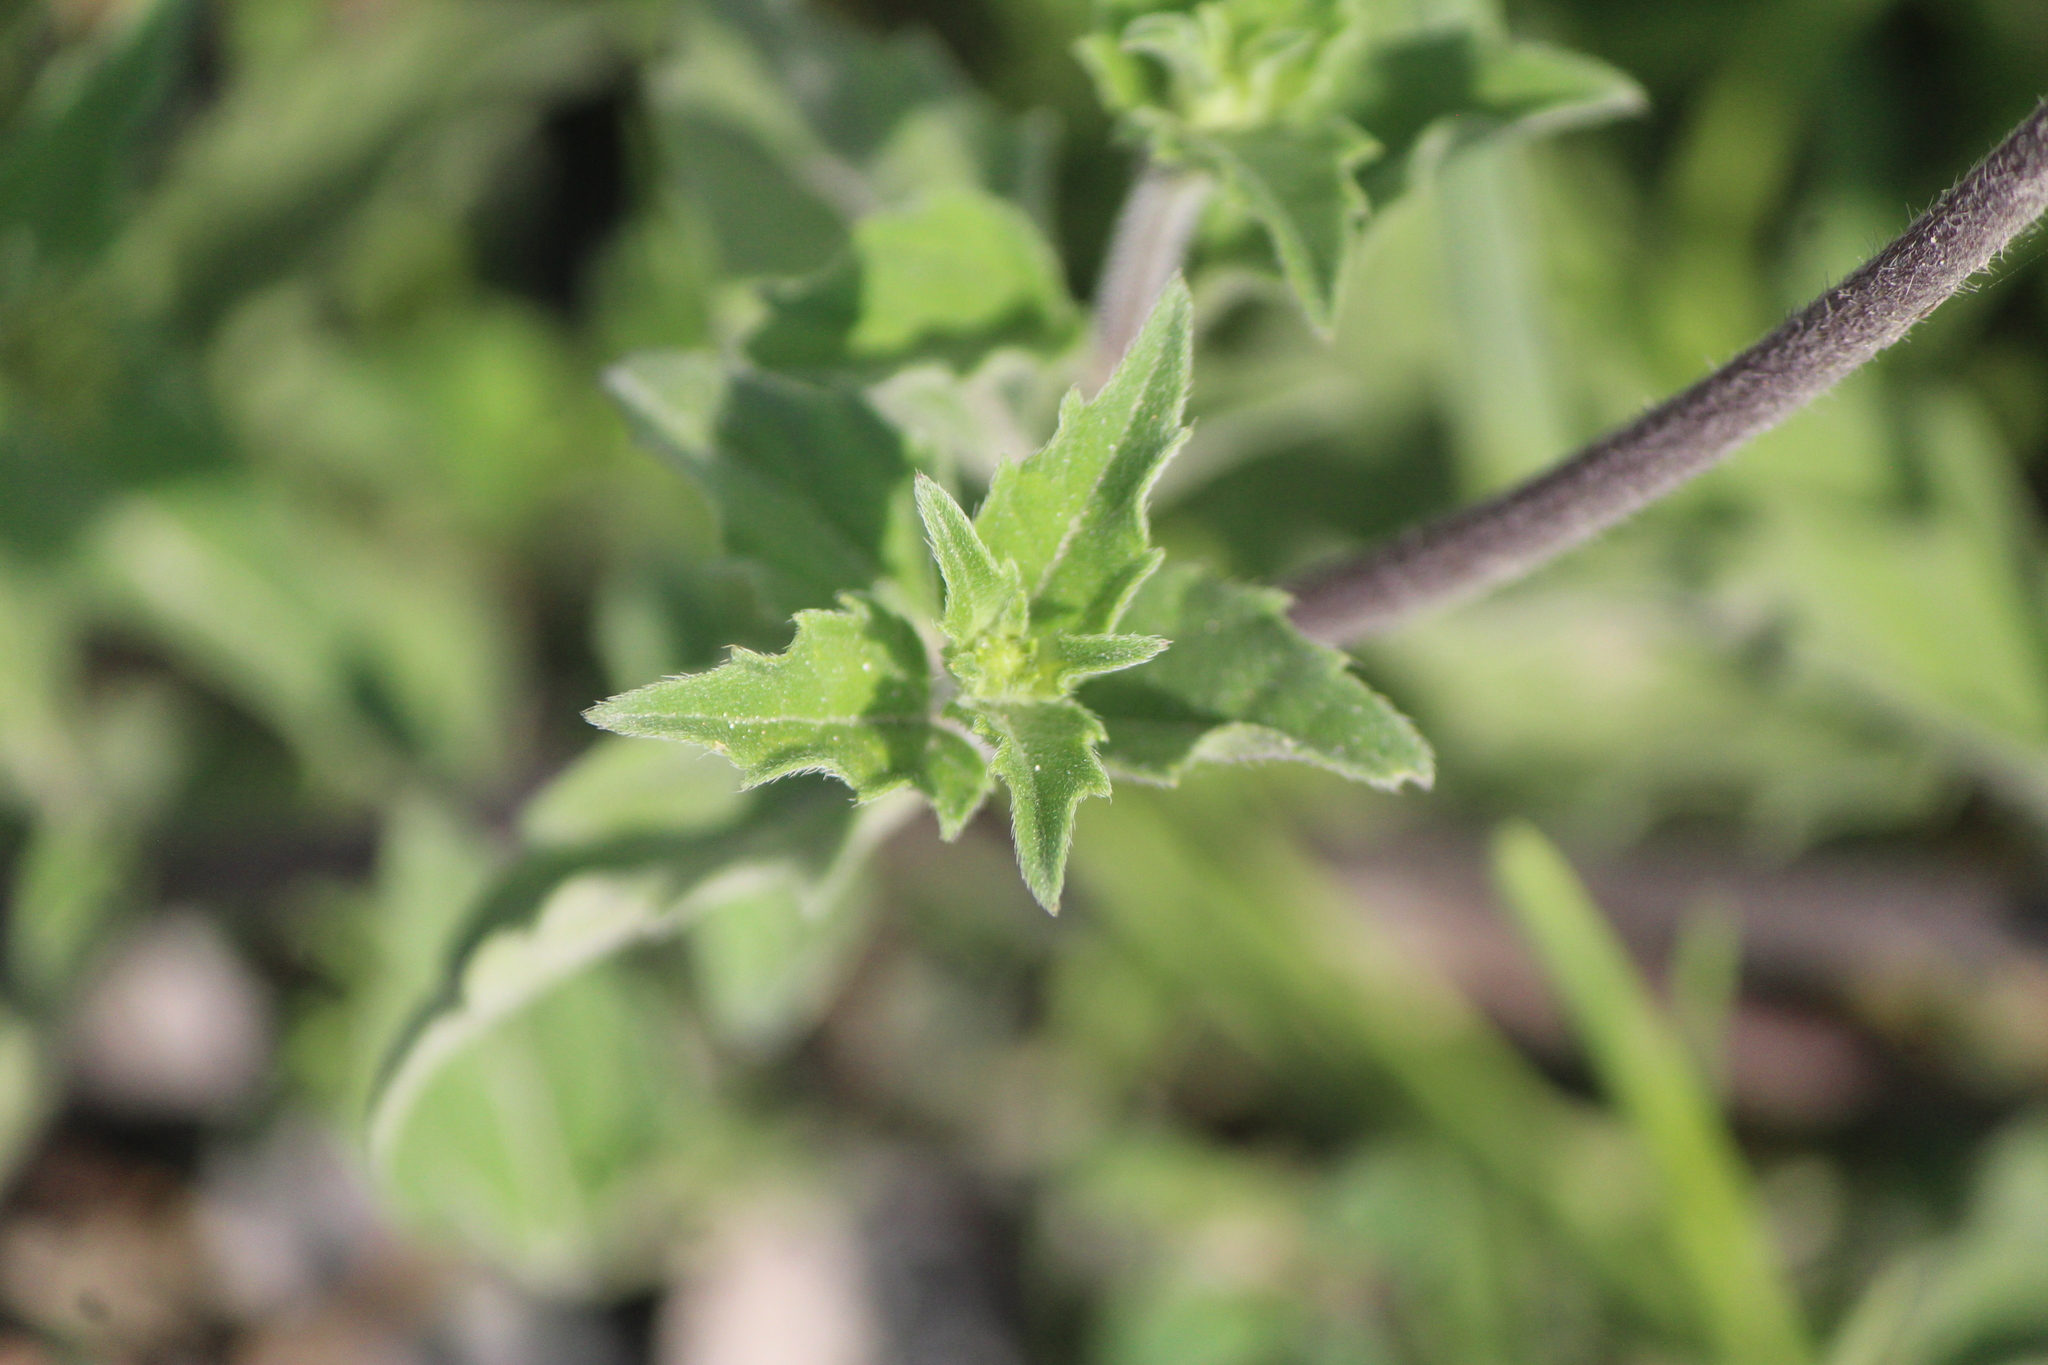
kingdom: Plantae
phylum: Tracheophyta
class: Magnoliopsida
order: Asterales
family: Asteraceae
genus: Sclerocarpus
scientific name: Sclerocarpus uniserialis
